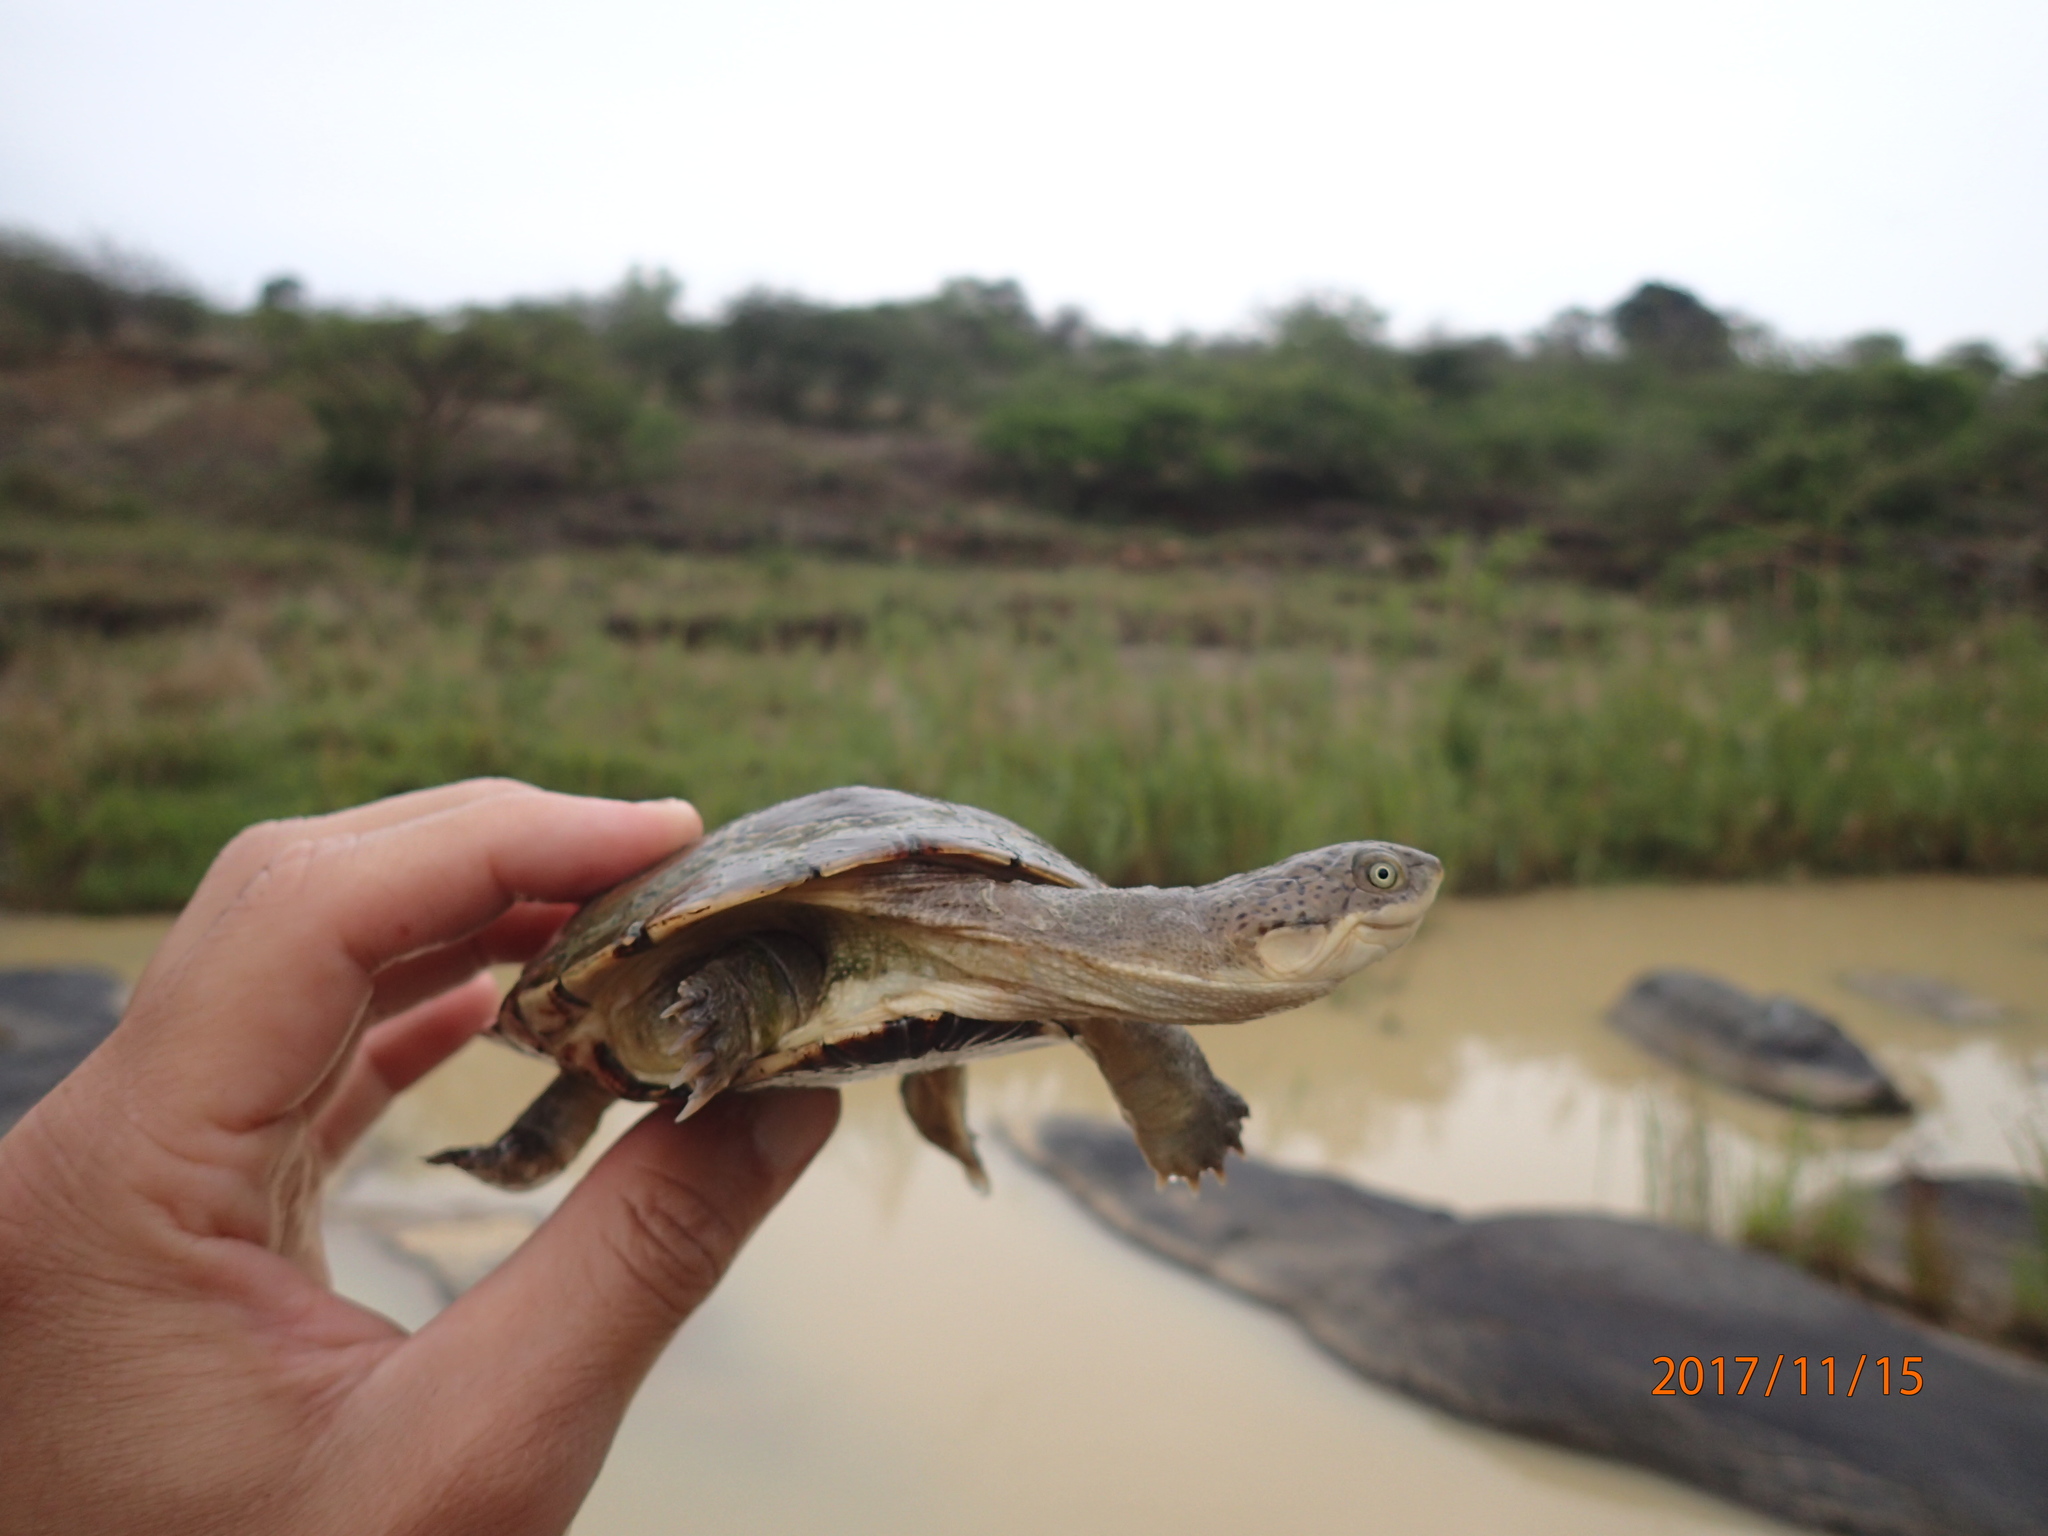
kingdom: Animalia
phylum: Chordata
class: Testudines
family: Pelomedusidae
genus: Pelomedusa
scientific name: Pelomedusa galeata
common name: South african helmeted terrapin
